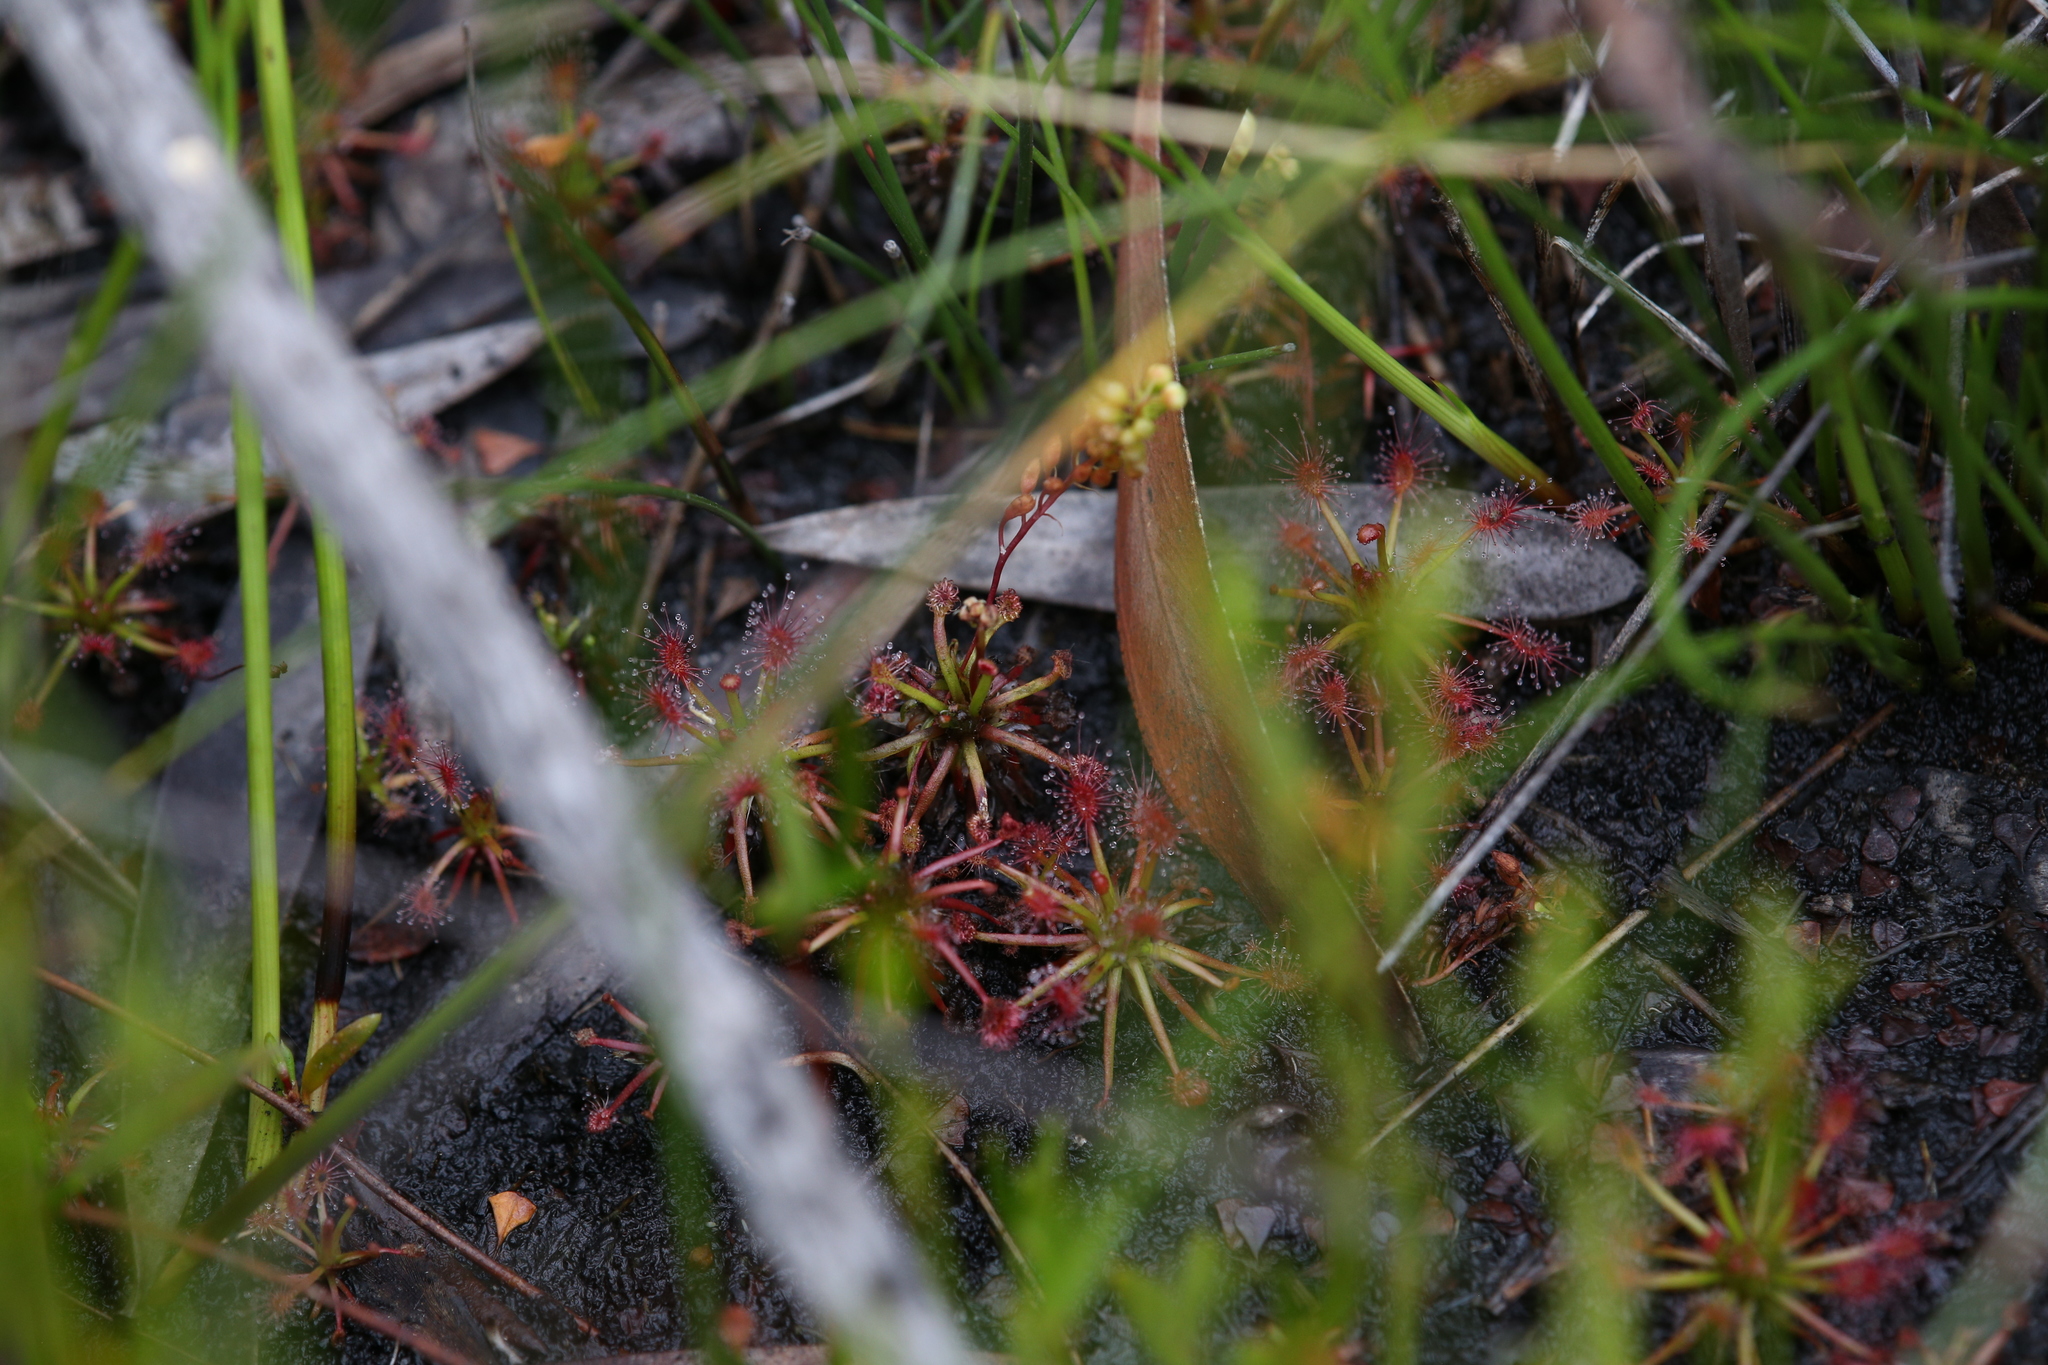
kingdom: Plantae
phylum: Tracheophyta
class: Magnoliopsida
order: Caryophyllales
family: Droseraceae
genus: Drosera
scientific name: Drosera paleacea
